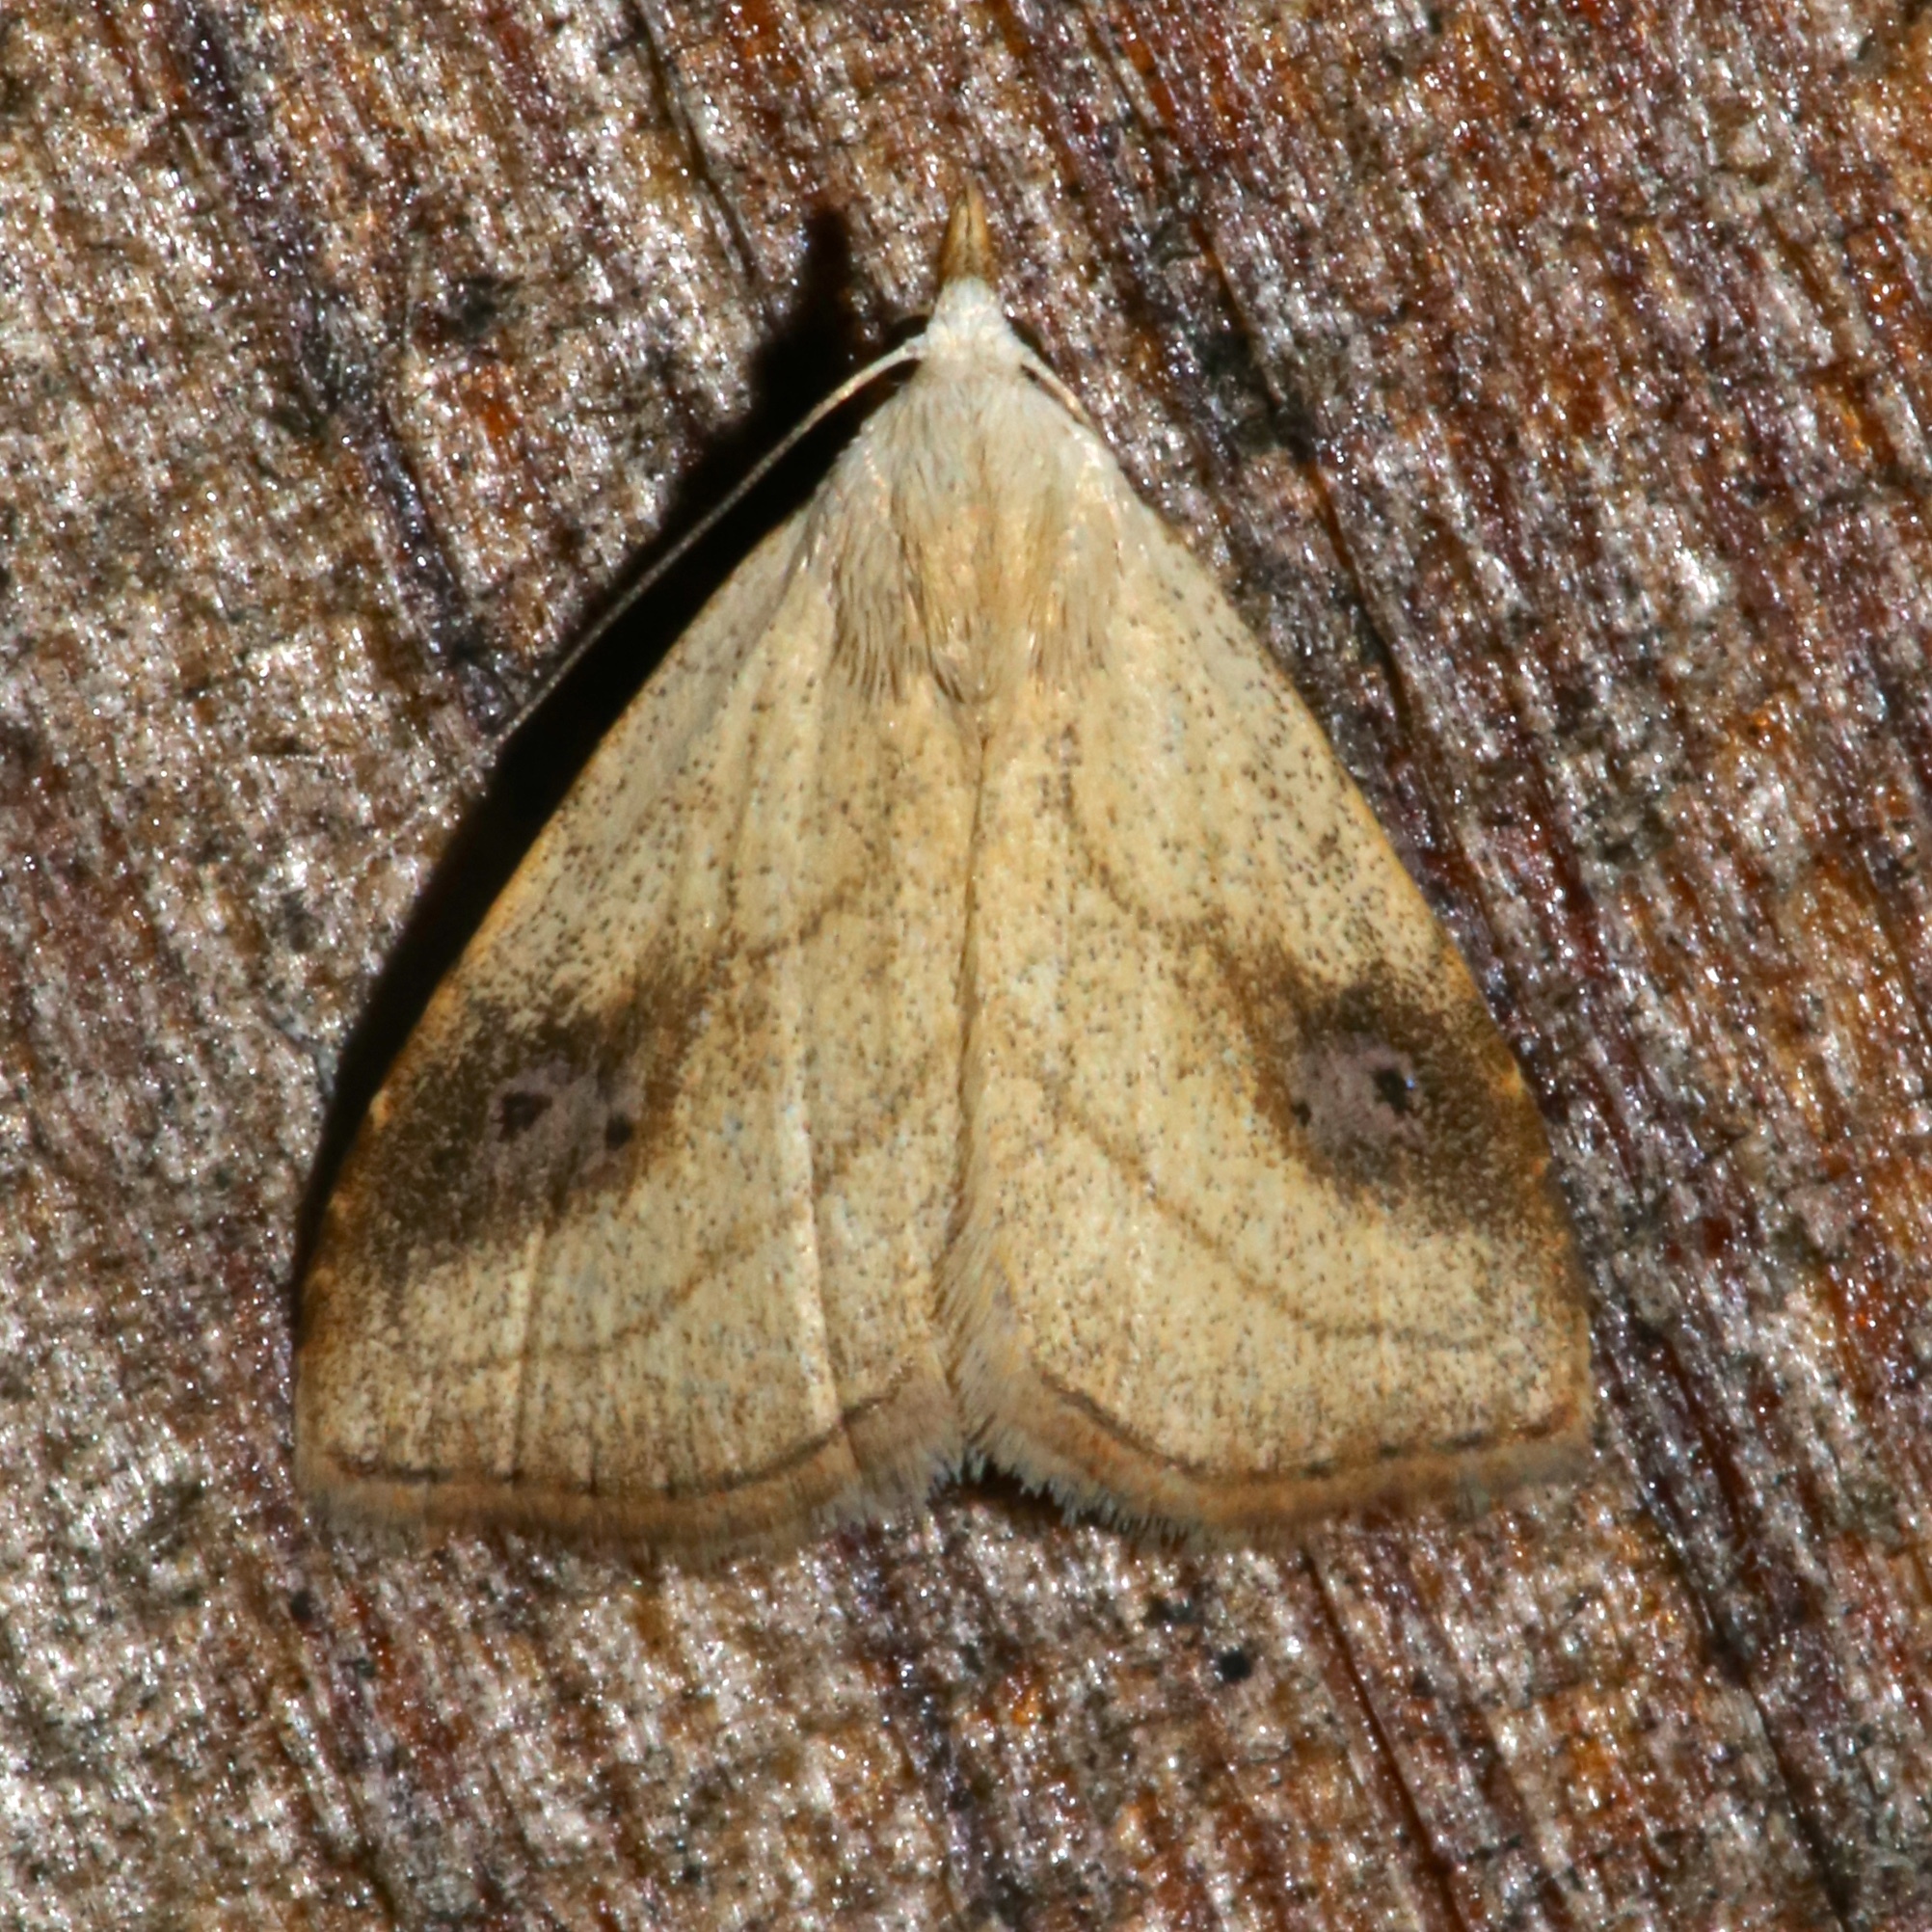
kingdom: Animalia
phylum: Arthropoda
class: Insecta
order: Lepidoptera
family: Erebidae
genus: Rivula
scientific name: Rivula propinqualis
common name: Spotted grass moth
